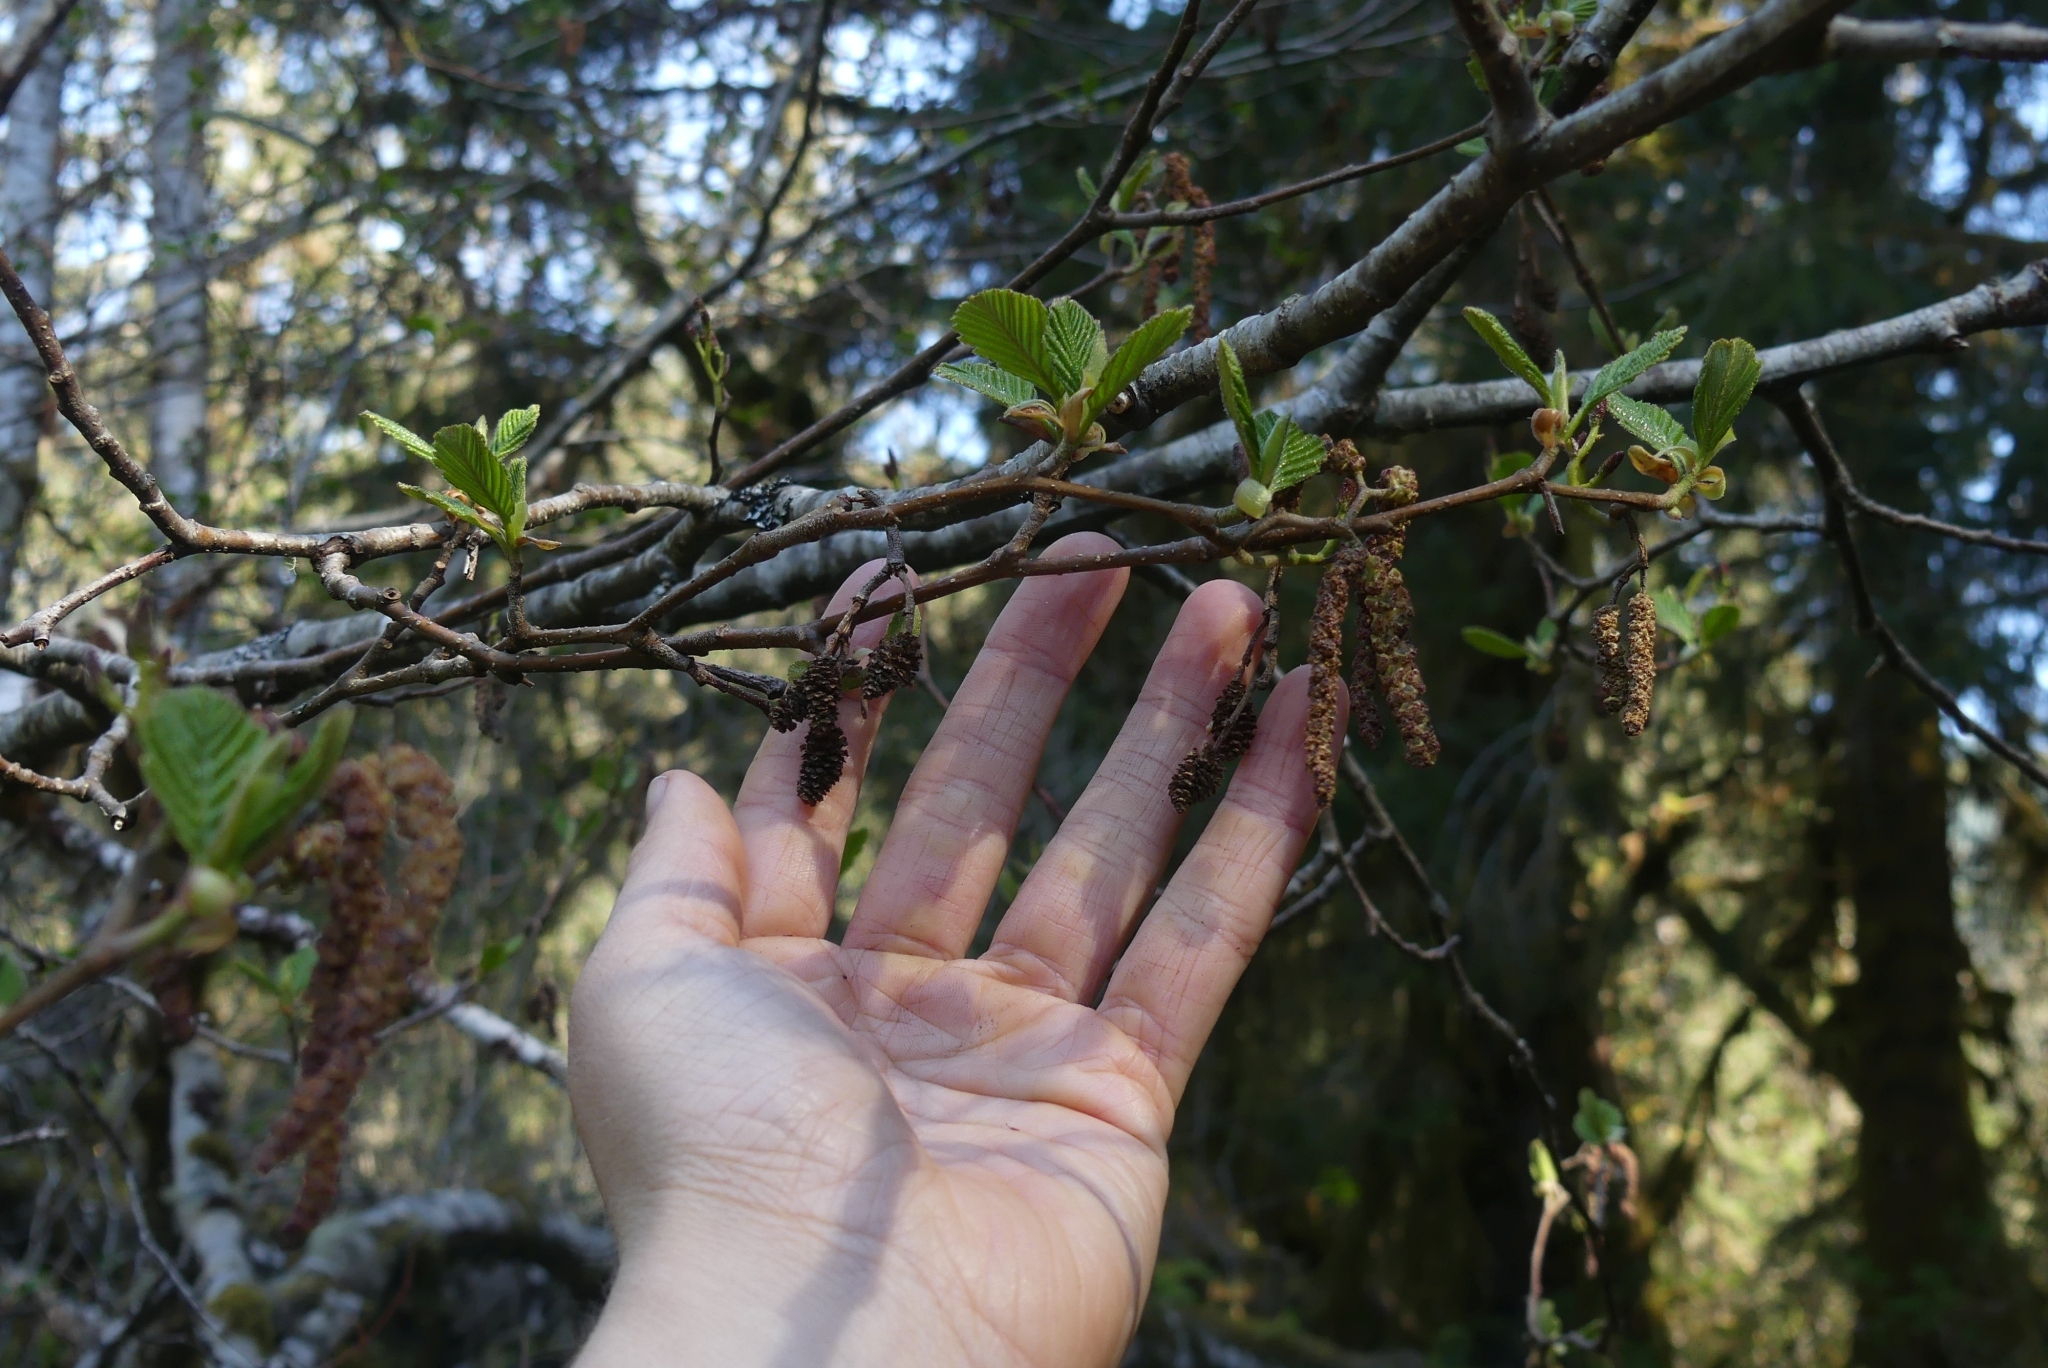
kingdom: Plantae
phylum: Tracheophyta
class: Magnoliopsida
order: Fagales
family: Betulaceae
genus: Alnus
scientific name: Alnus rubra
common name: Red alder
